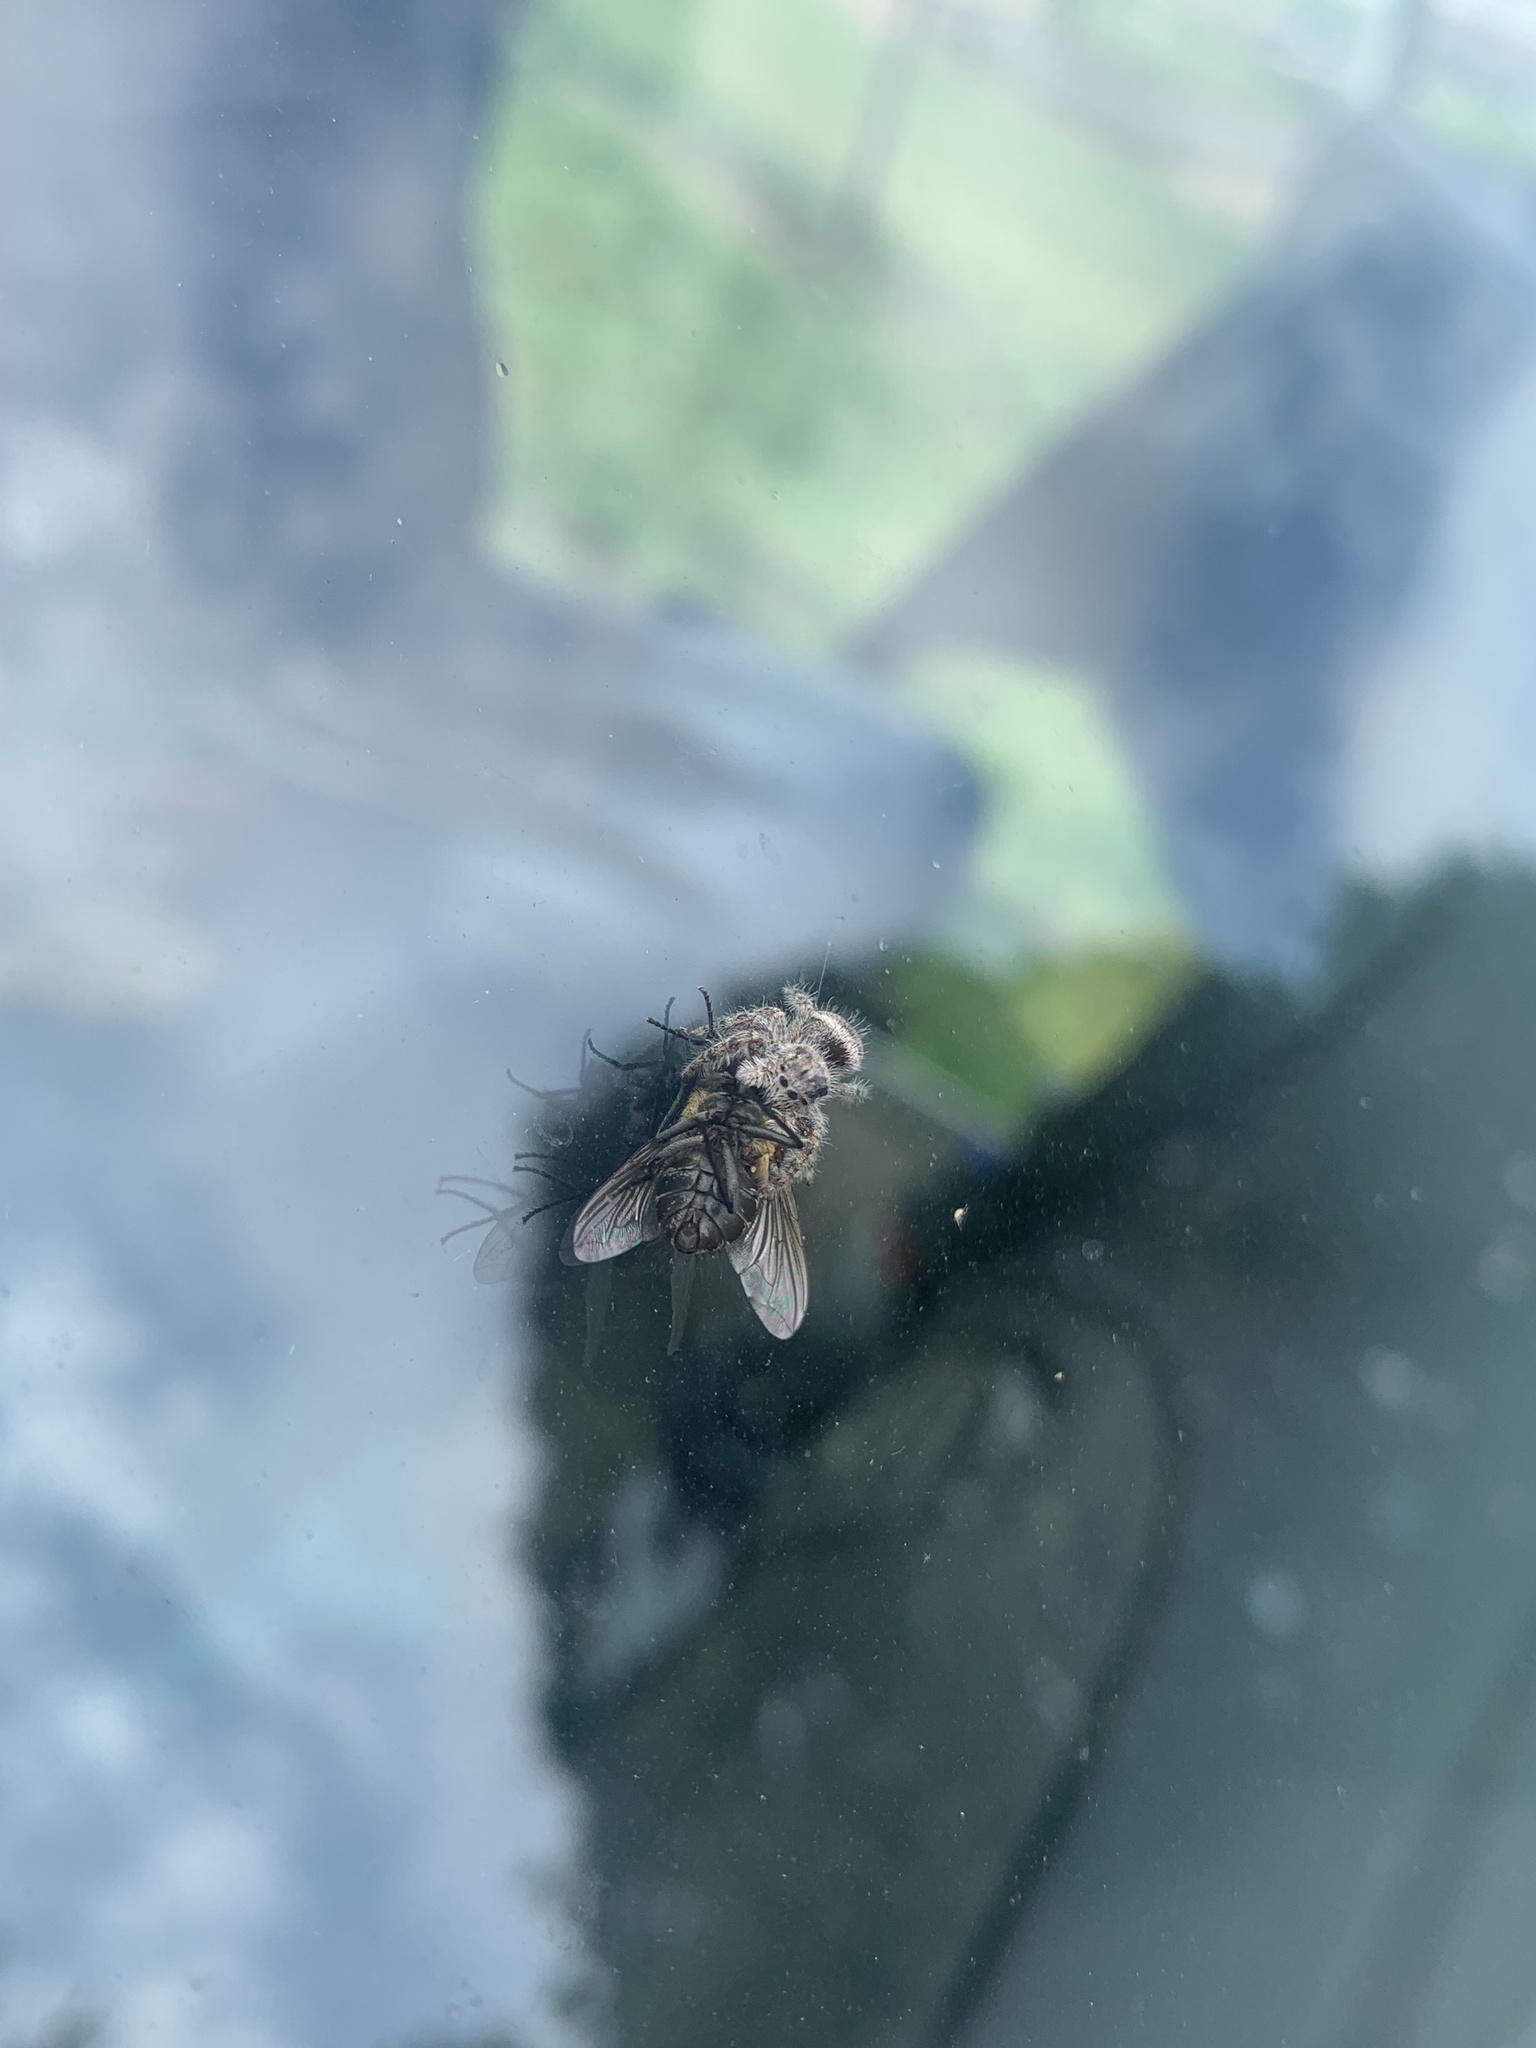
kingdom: Animalia
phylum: Arthropoda
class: Arachnida
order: Araneae
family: Salticidae
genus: Phidippus
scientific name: Phidippus putnami
